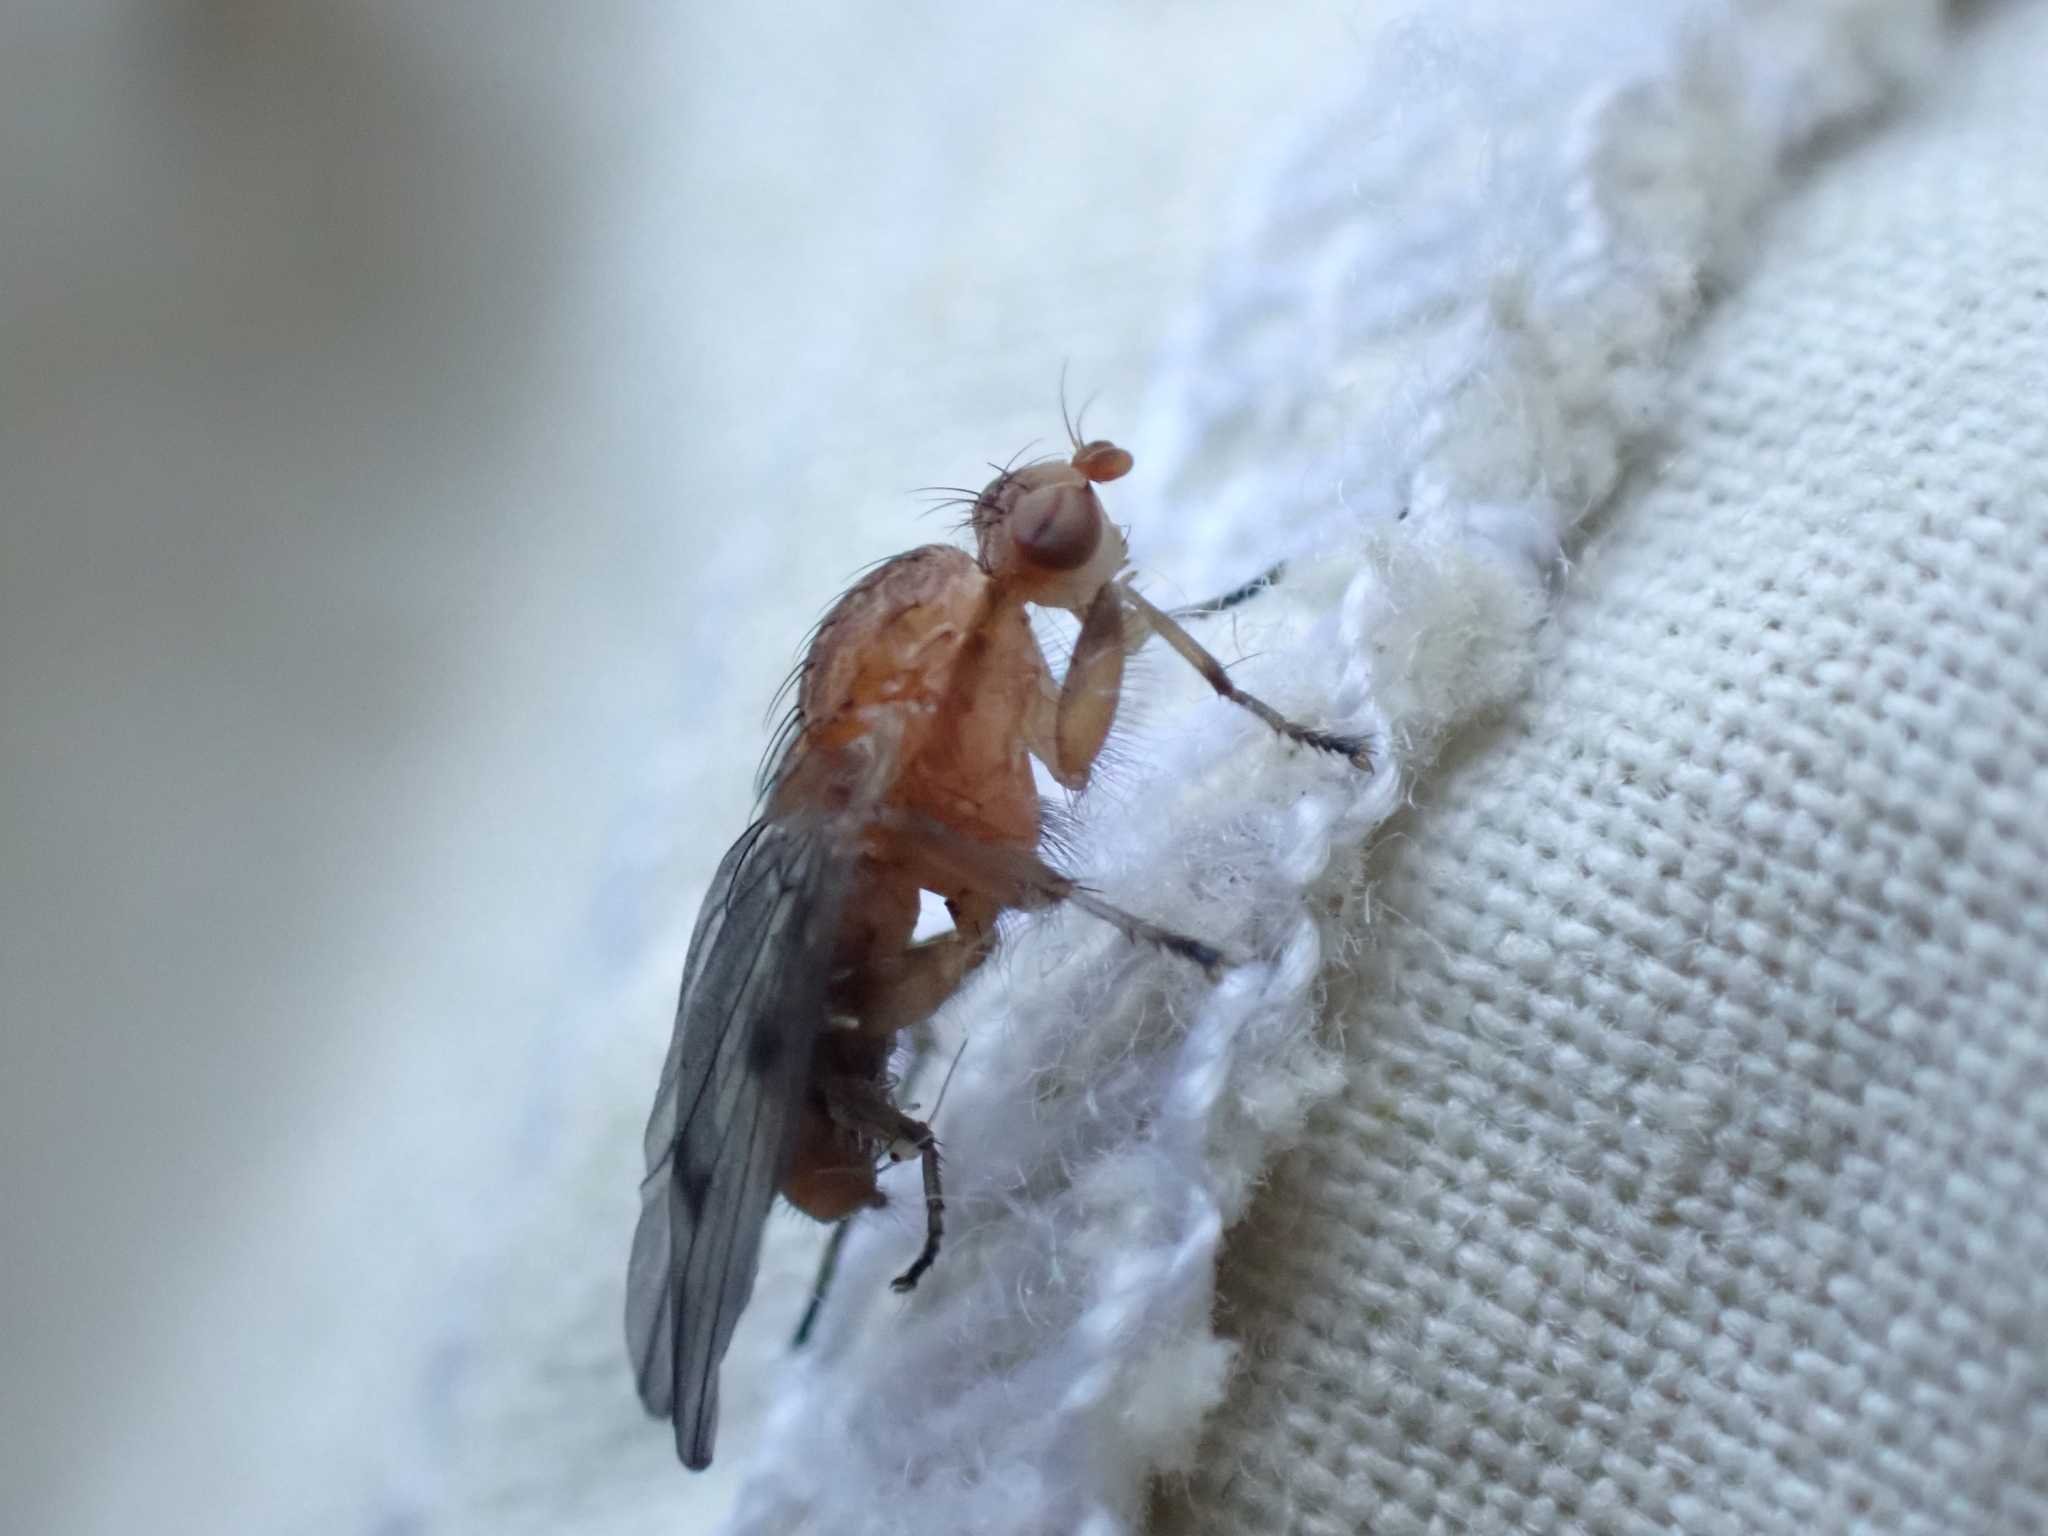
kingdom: Animalia
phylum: Arthropoda
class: Insecta
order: Diptera
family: Heleomyzidae
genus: Suillia
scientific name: Suillia nemorum
